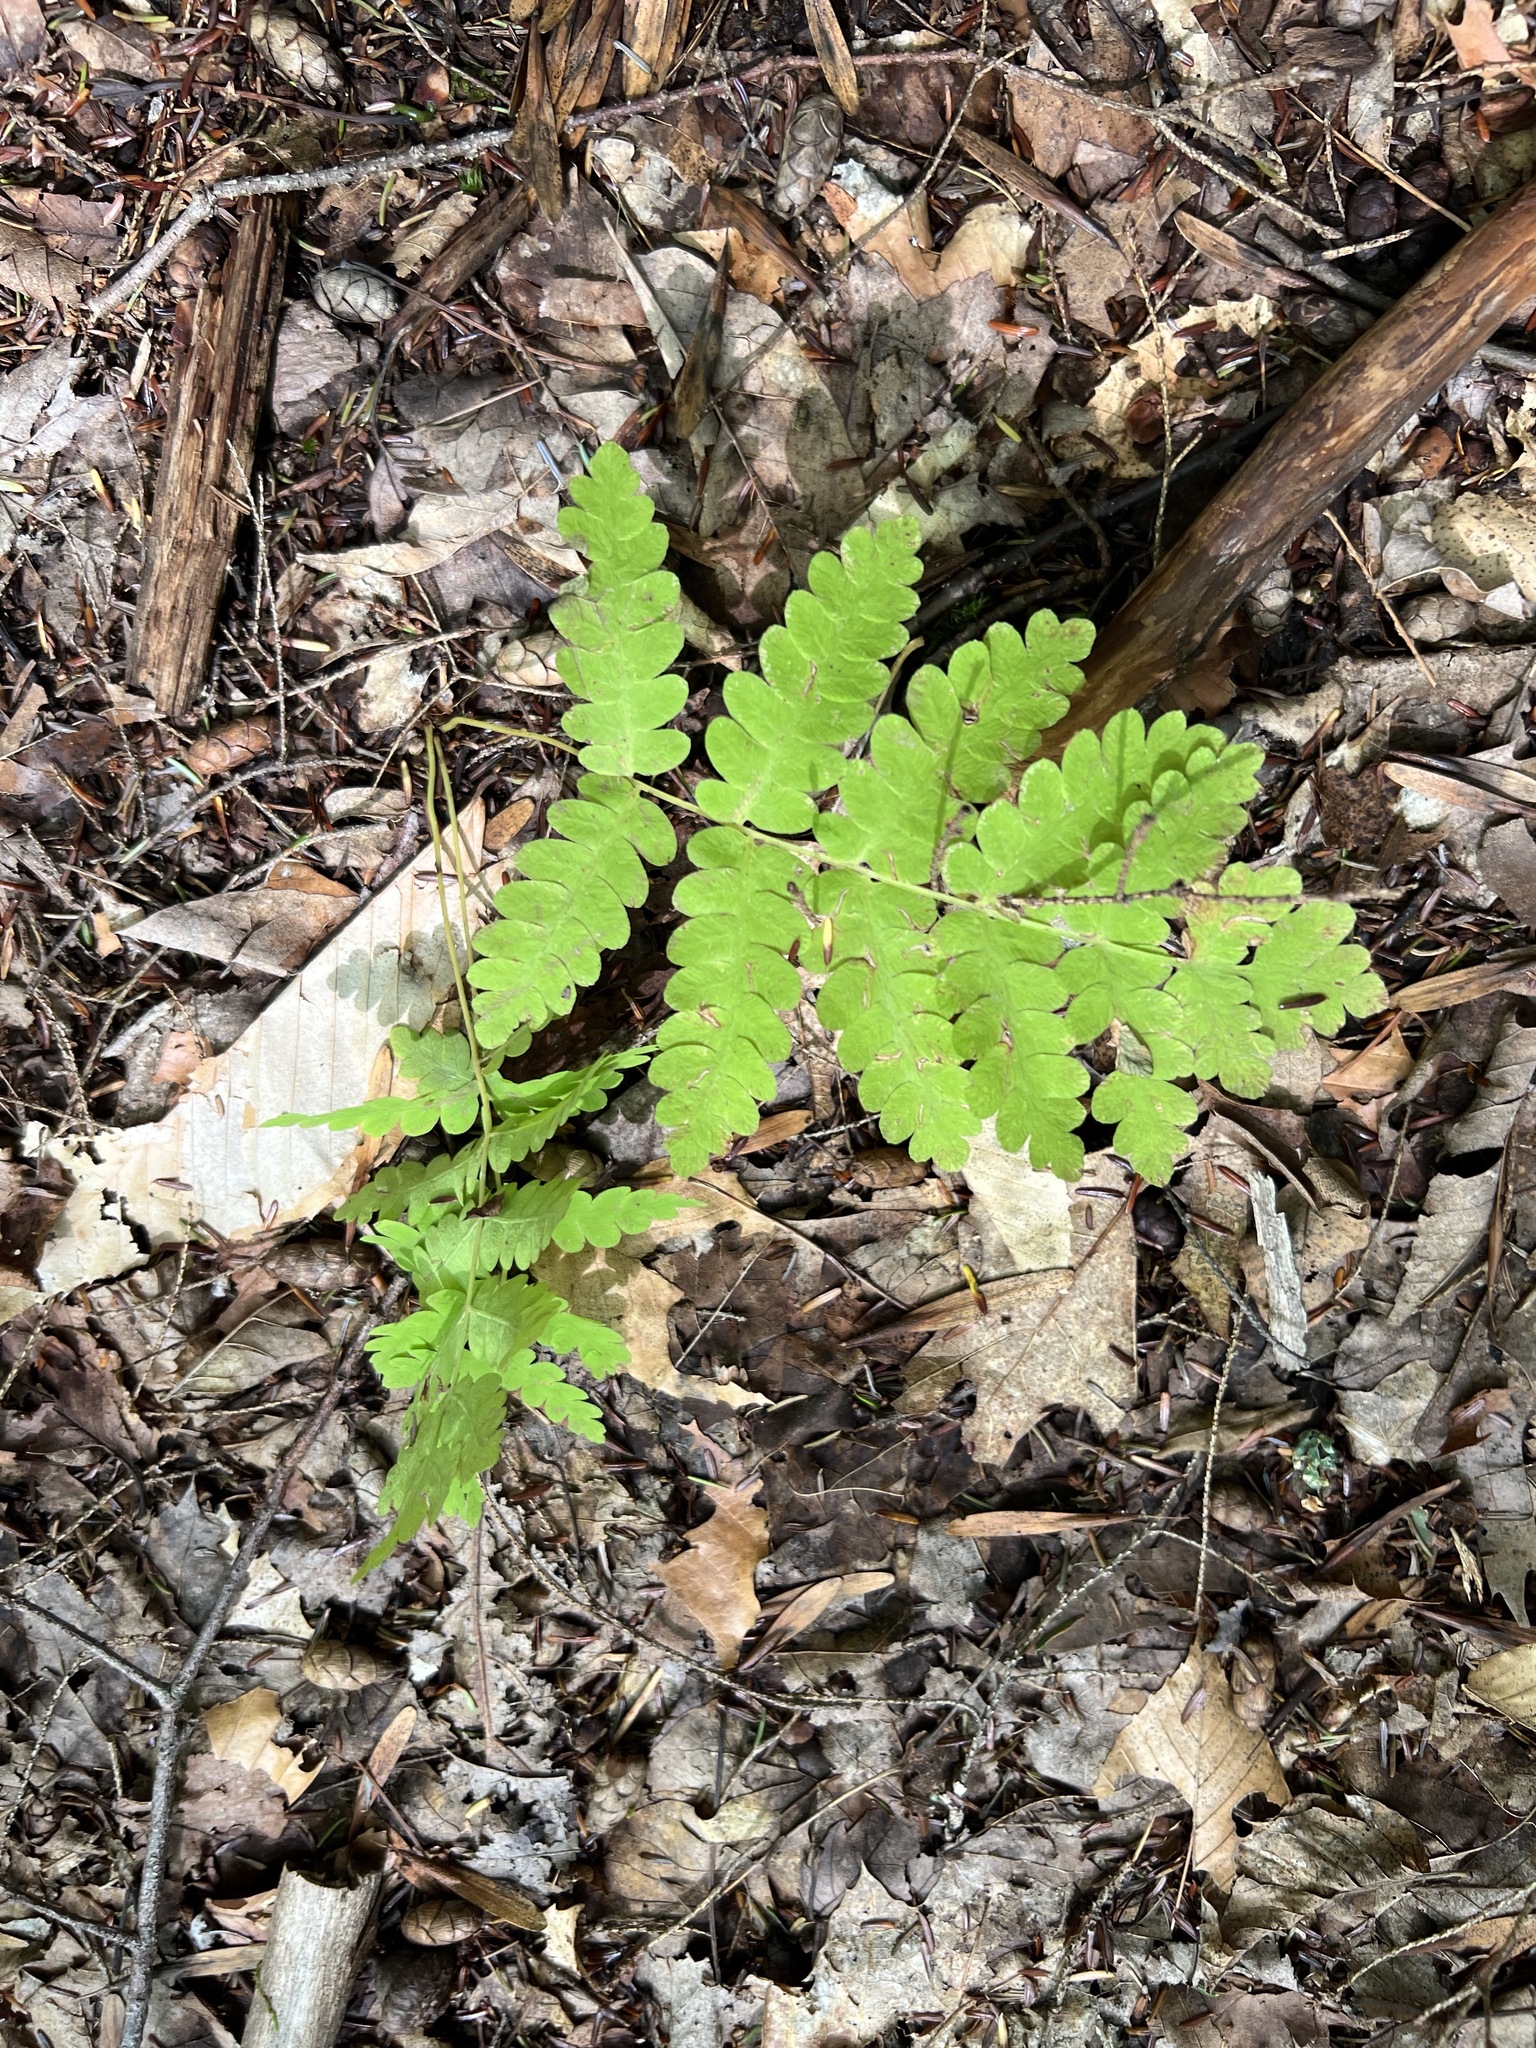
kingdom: Plantae
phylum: Tracheophyta
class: Polypodiopsida
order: Osmundales
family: Osmundaceae
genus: Claytosmunda
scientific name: Claytosmunda claytoniana
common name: Clayton's fern
